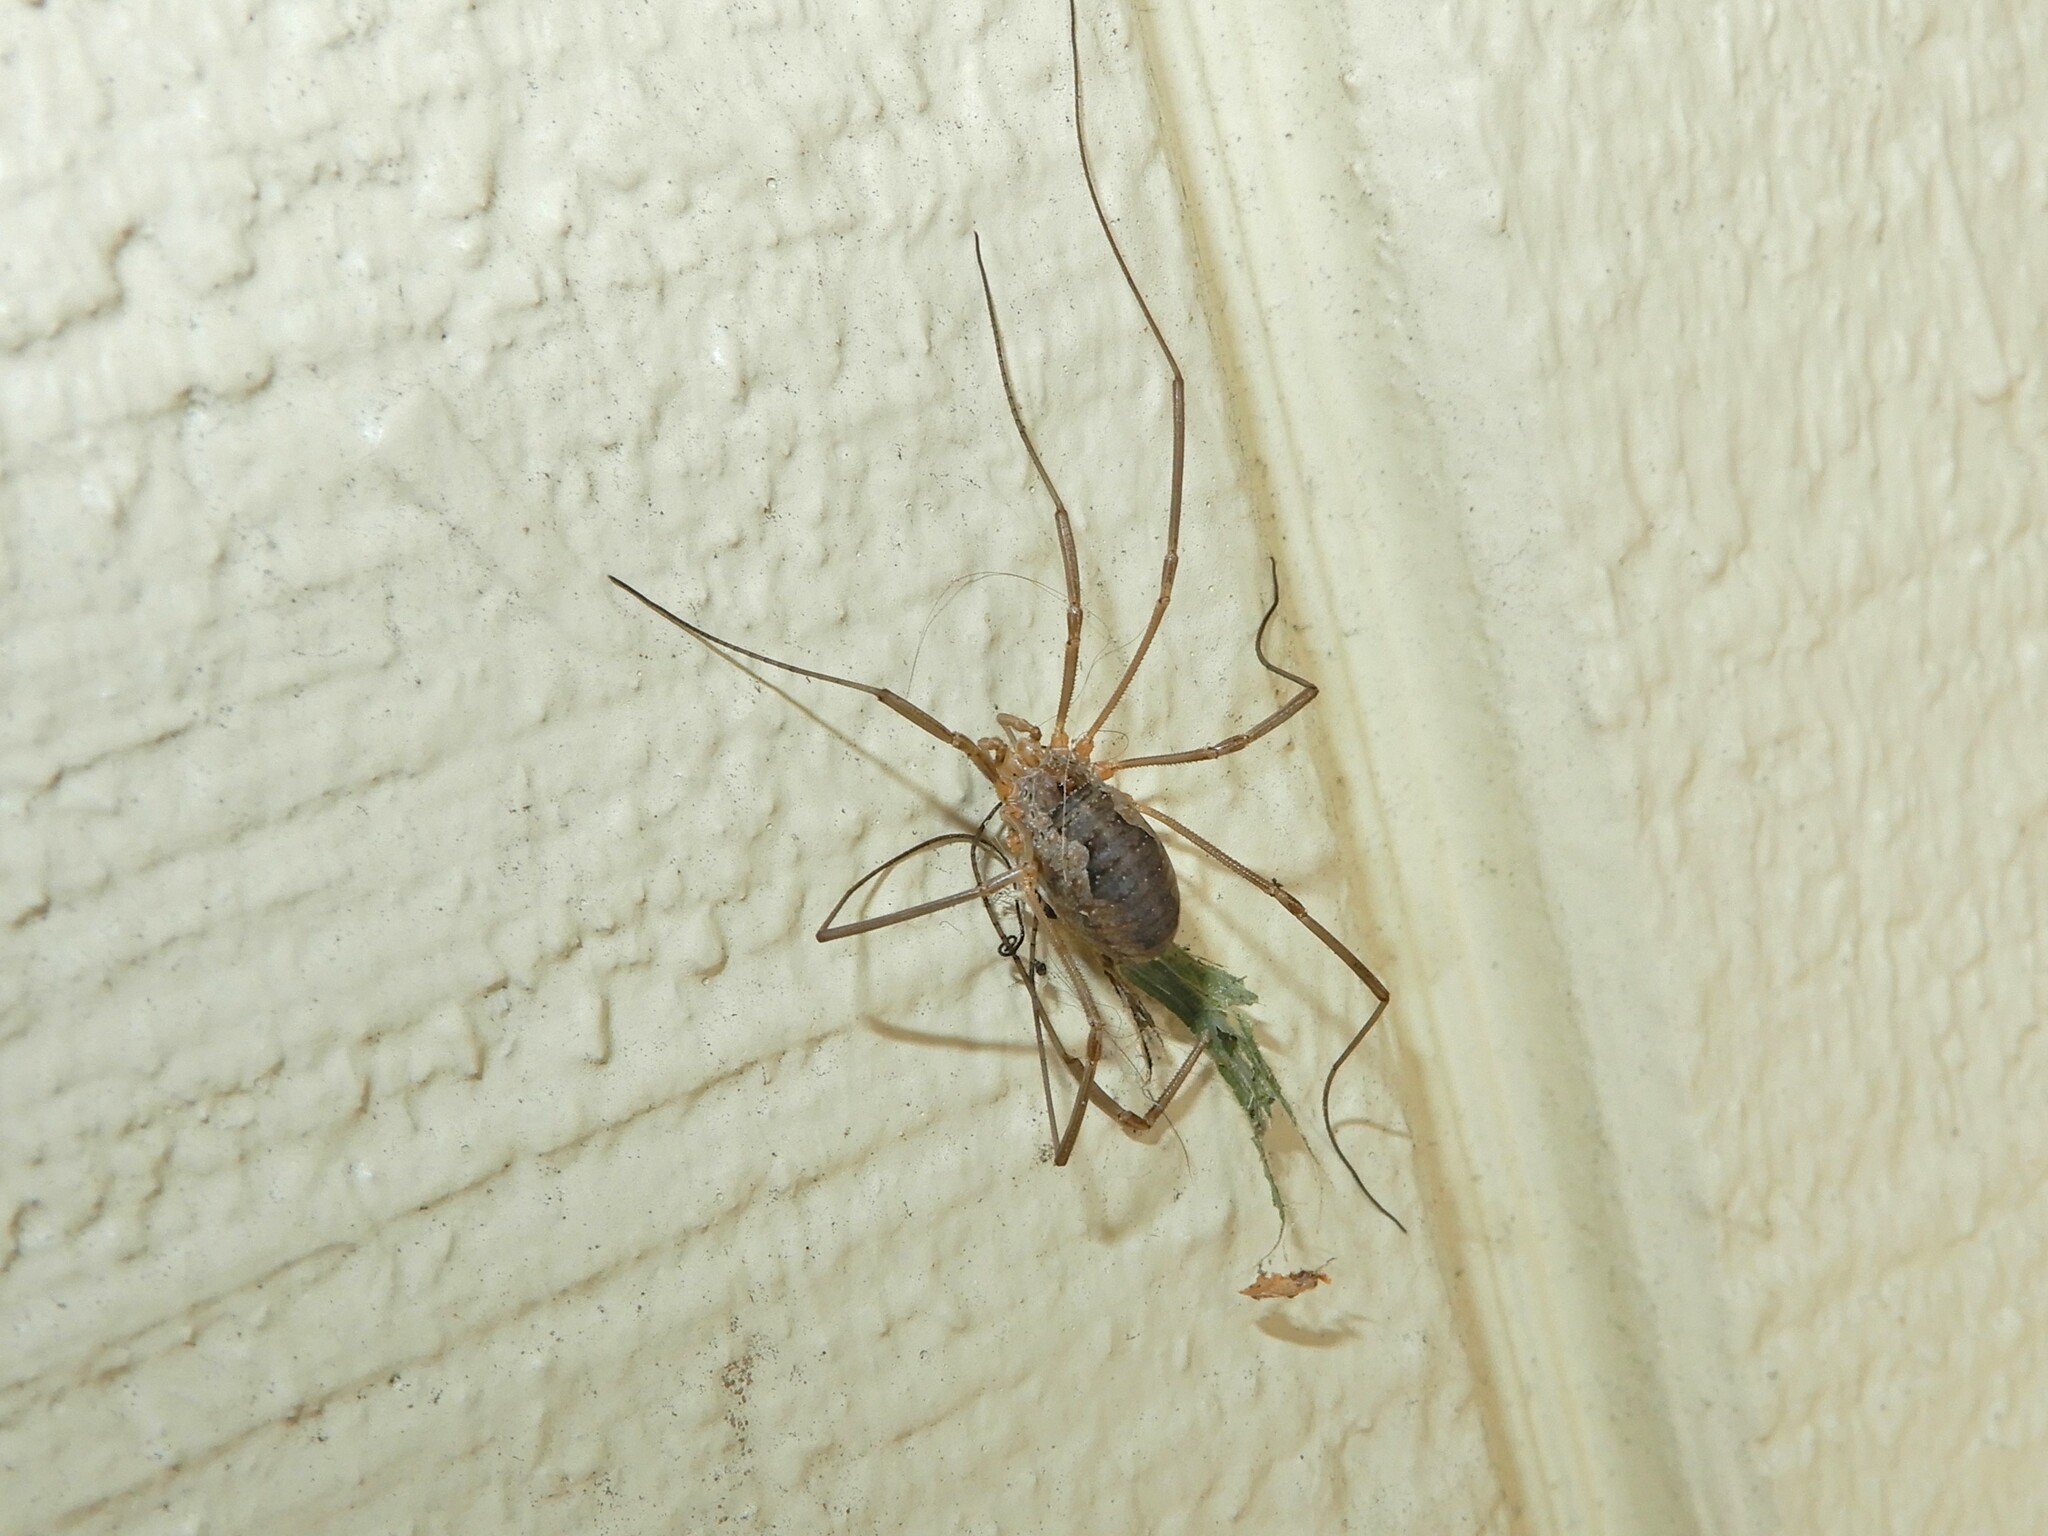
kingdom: Animalia
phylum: Arthropoda
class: Arachnida
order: Opiliones
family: Phalangiidae
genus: Phalangium
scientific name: Phalangium opilio
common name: Daddy longleg
